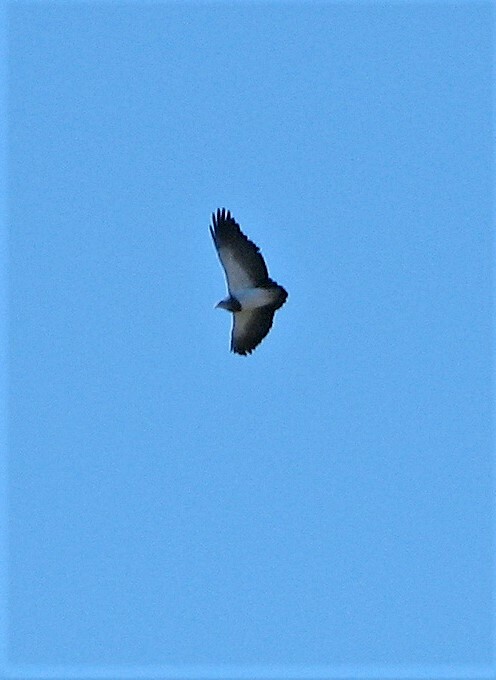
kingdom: Animalia
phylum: Chordata
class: Aves
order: Accipitriformes
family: Accipitridae
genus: Geranoaetus
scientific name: Geranoaetus melanoleucus
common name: Black-chested buzzard-eagle
